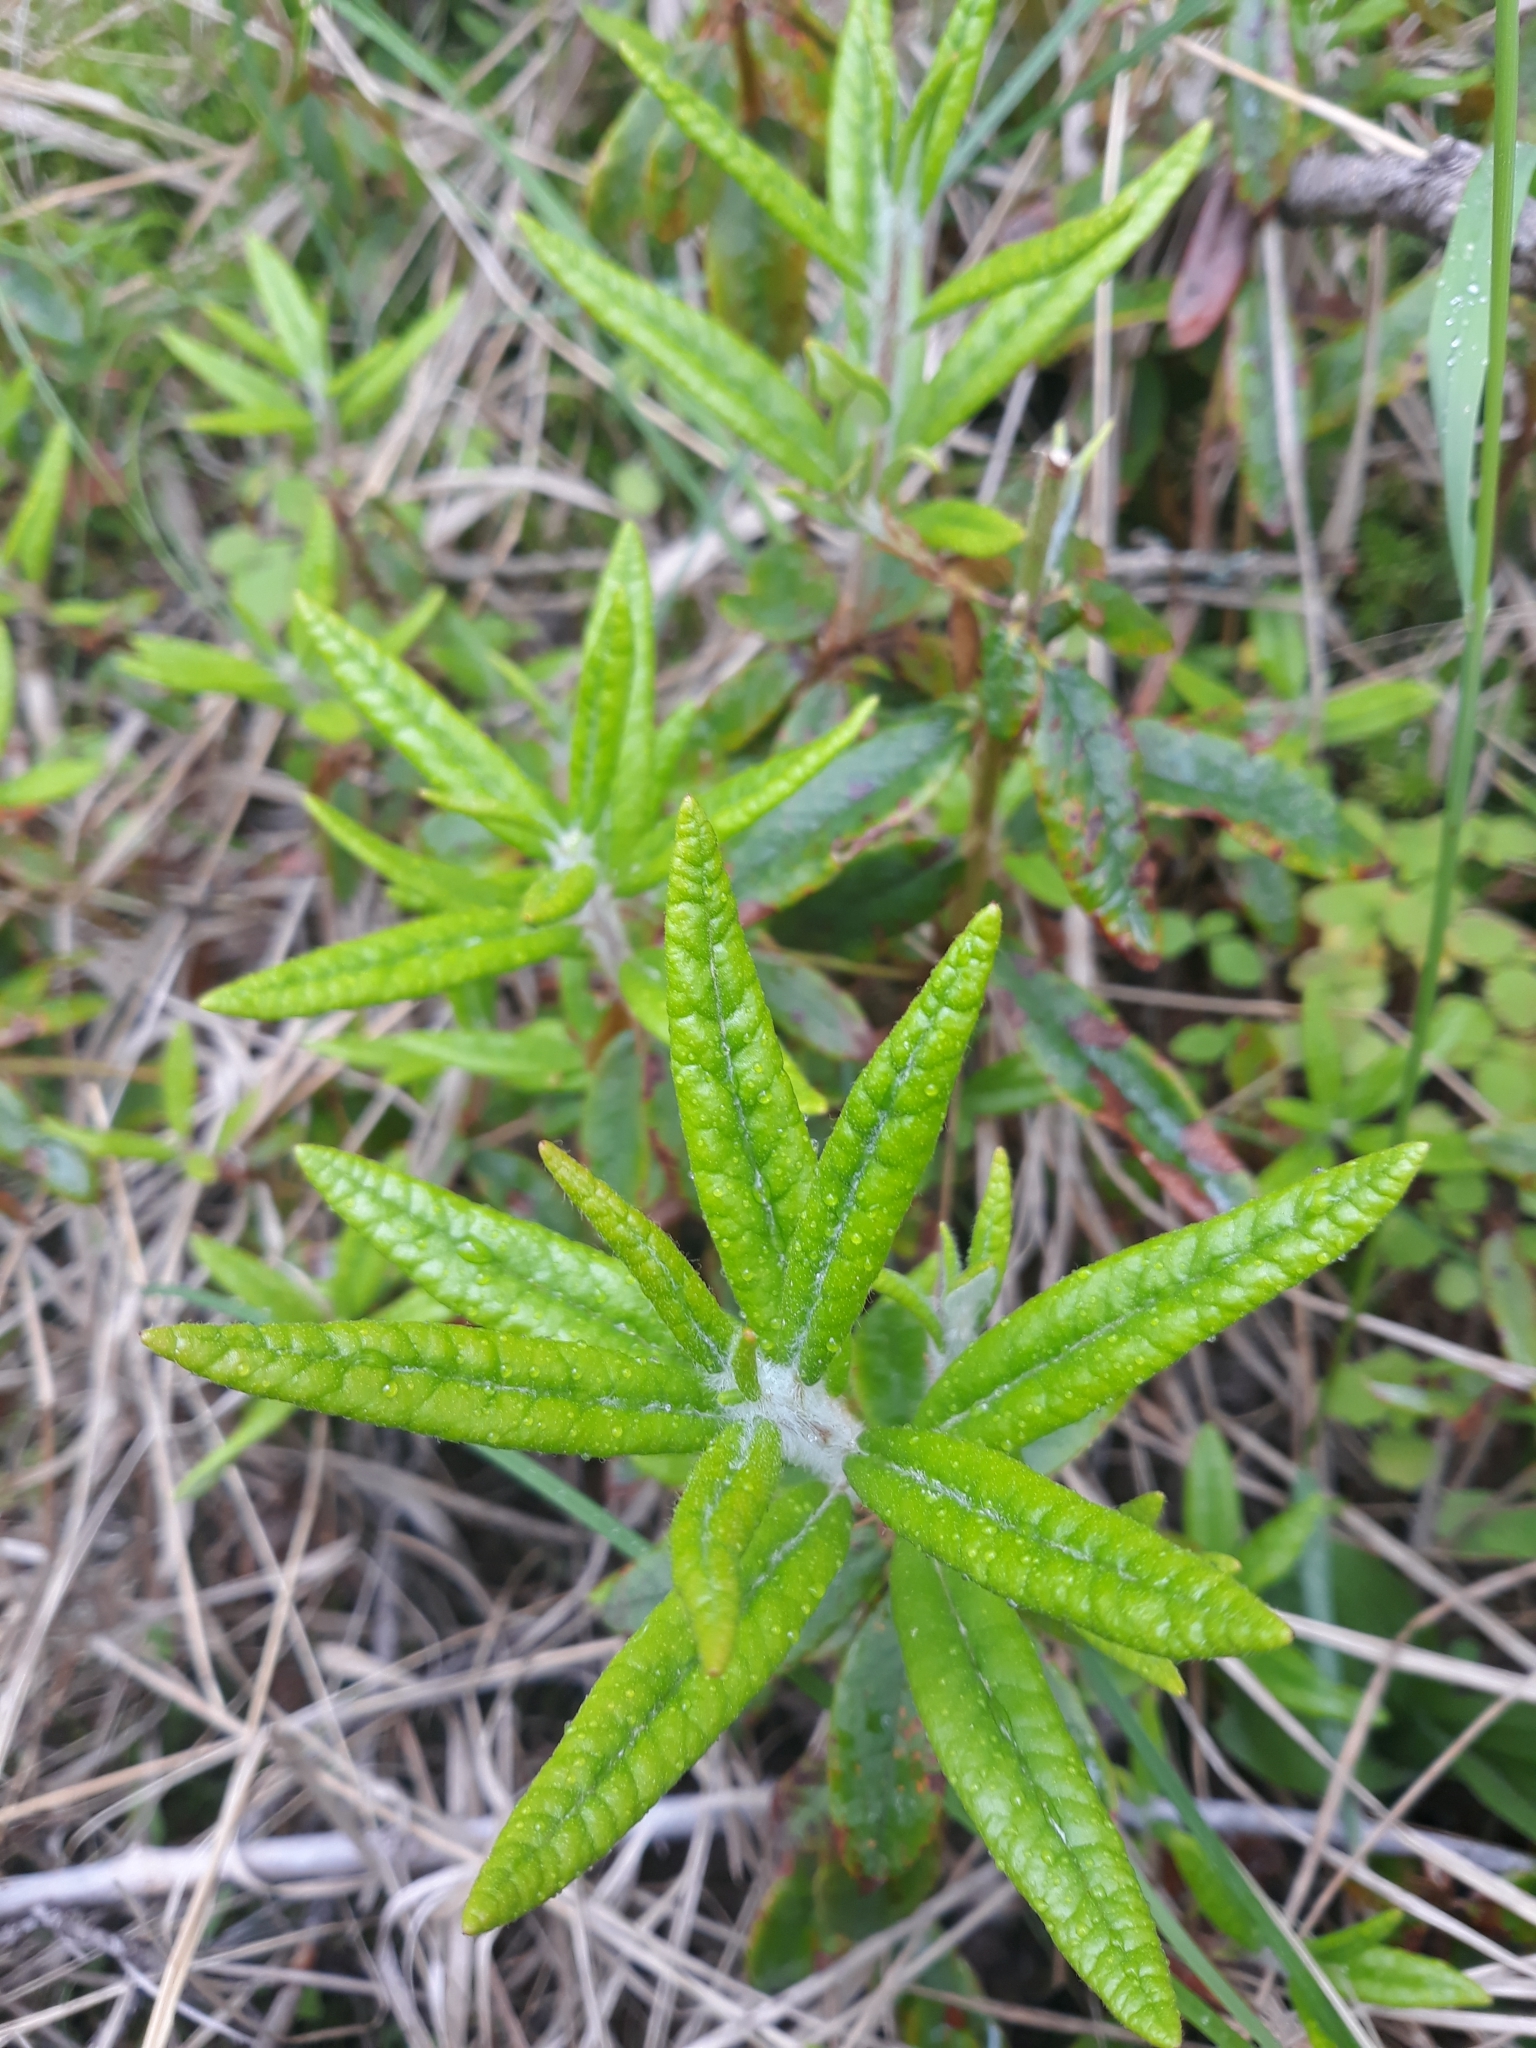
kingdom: Plantae
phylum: Tracheophyta
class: Magnoliopsida
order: Ericales
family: Ericaceae
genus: Rhododendron
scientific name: Rhododendron groenlandicum
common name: Bog labrador tea
